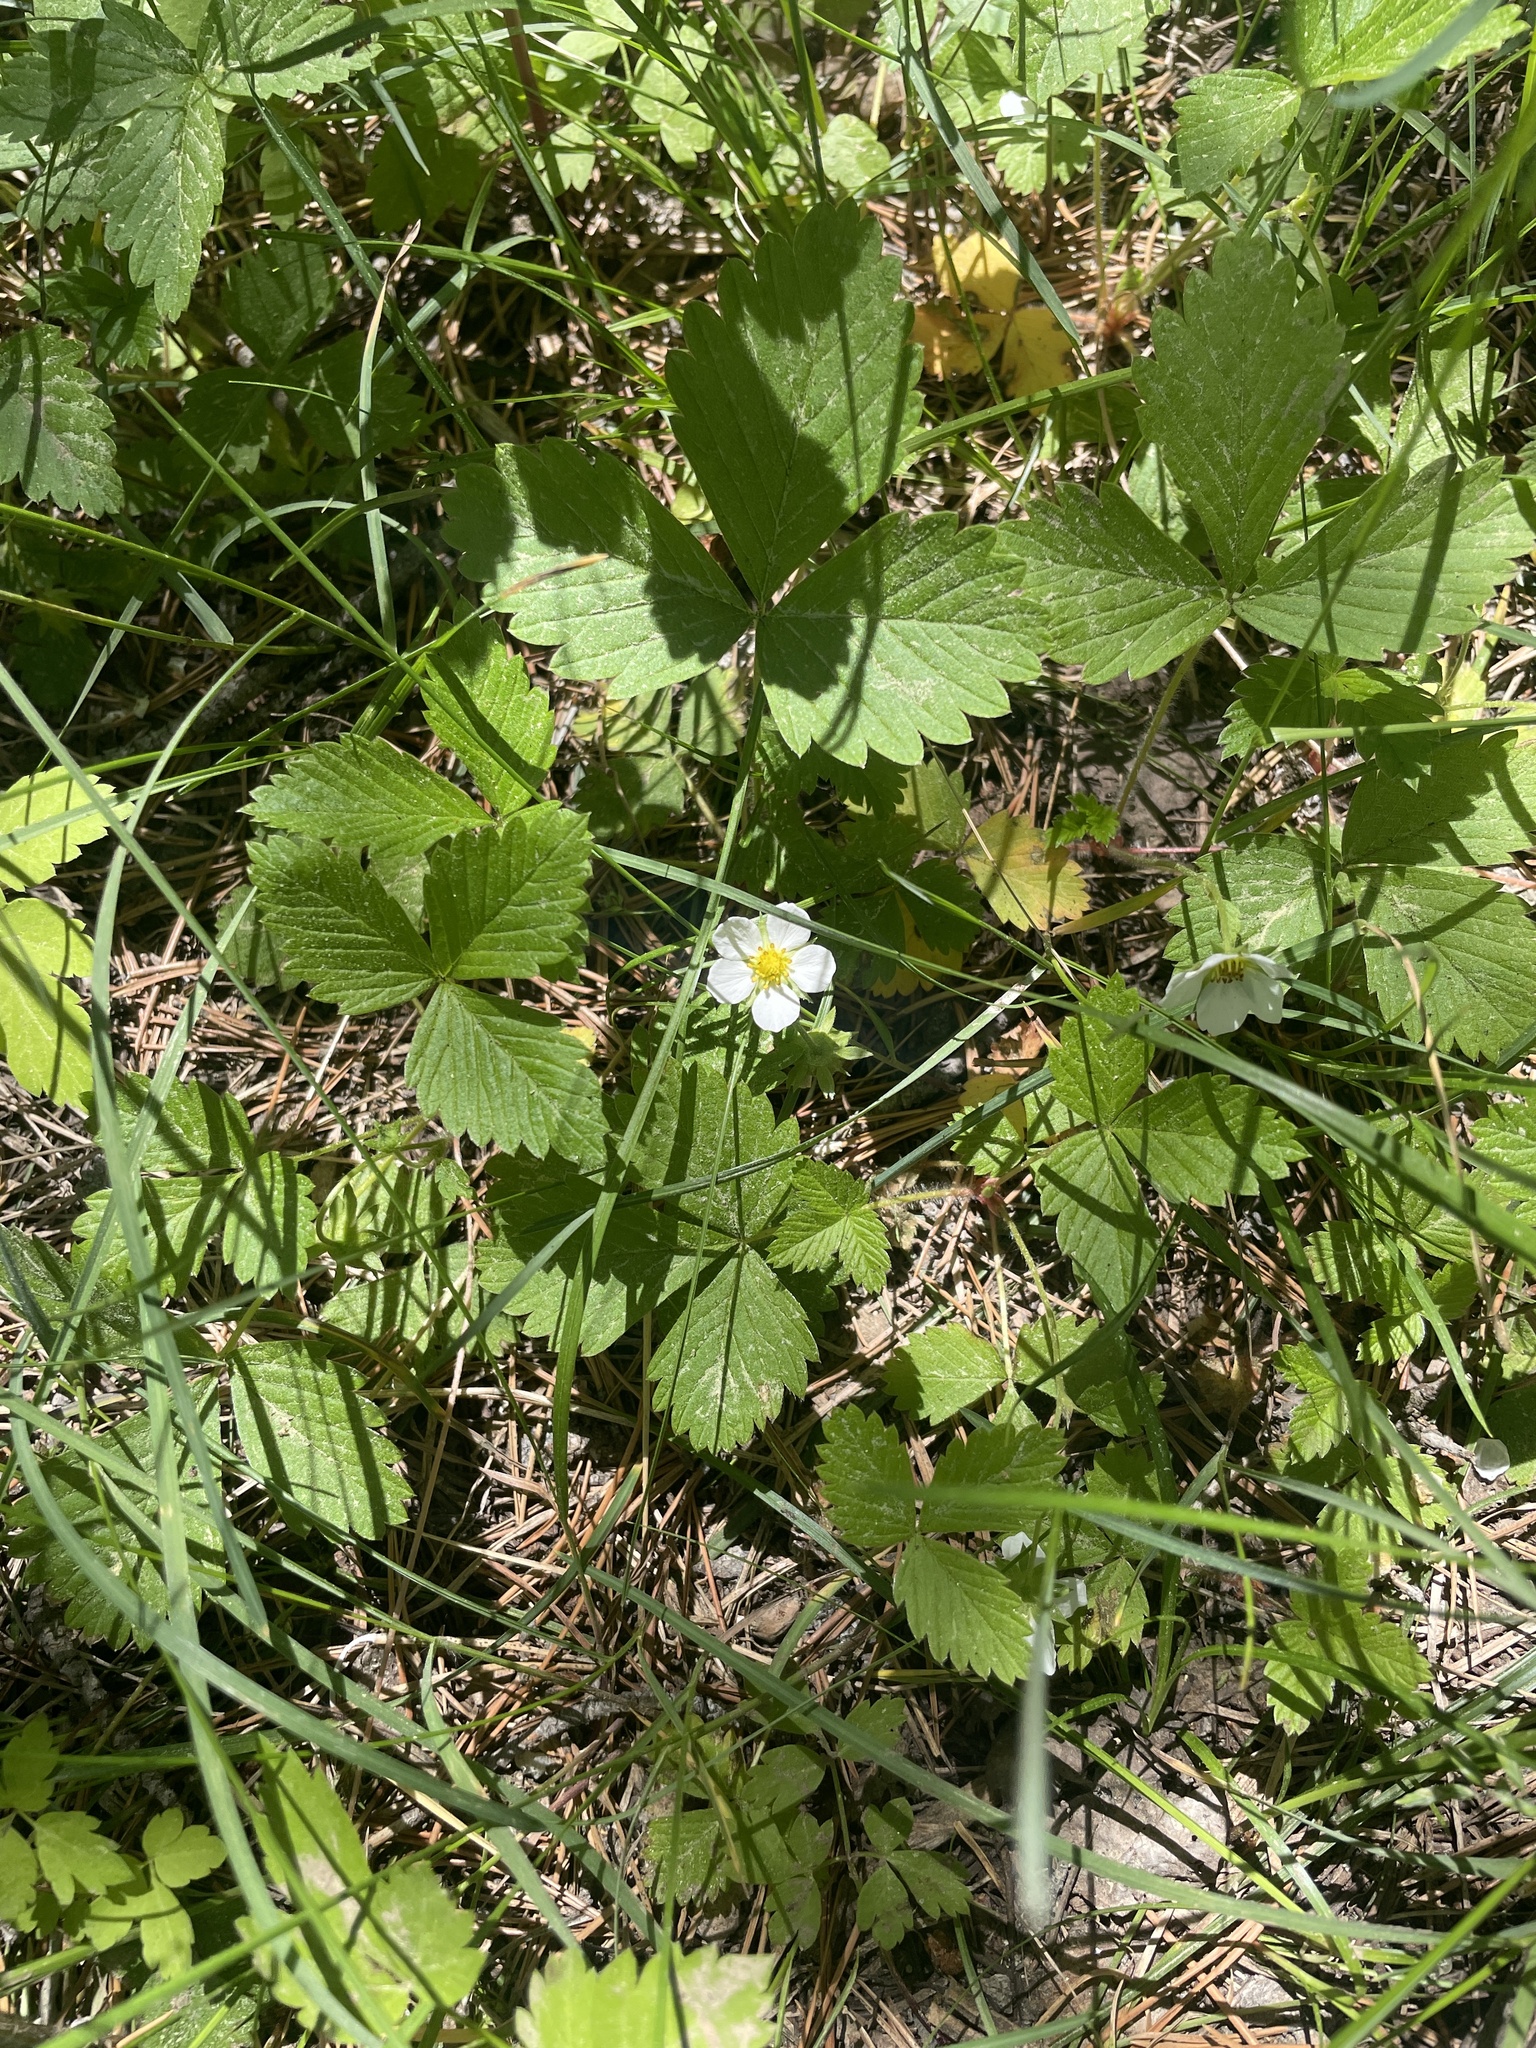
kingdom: Plantae
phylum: Tracheophyta
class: Magnoliopsida
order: Rosales
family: Rosaceae
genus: Fragaria
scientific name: Fragaria vesca
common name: Wild strawberry
